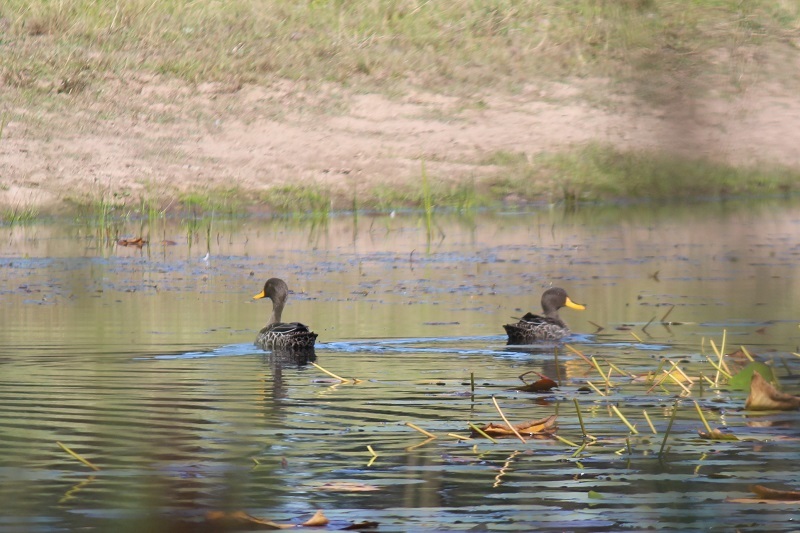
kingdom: Animalia
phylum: Chordata
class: Aves
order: Anseriformes
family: Anatidae
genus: Anas
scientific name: Anas undulata
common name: Yellow-billed duck
